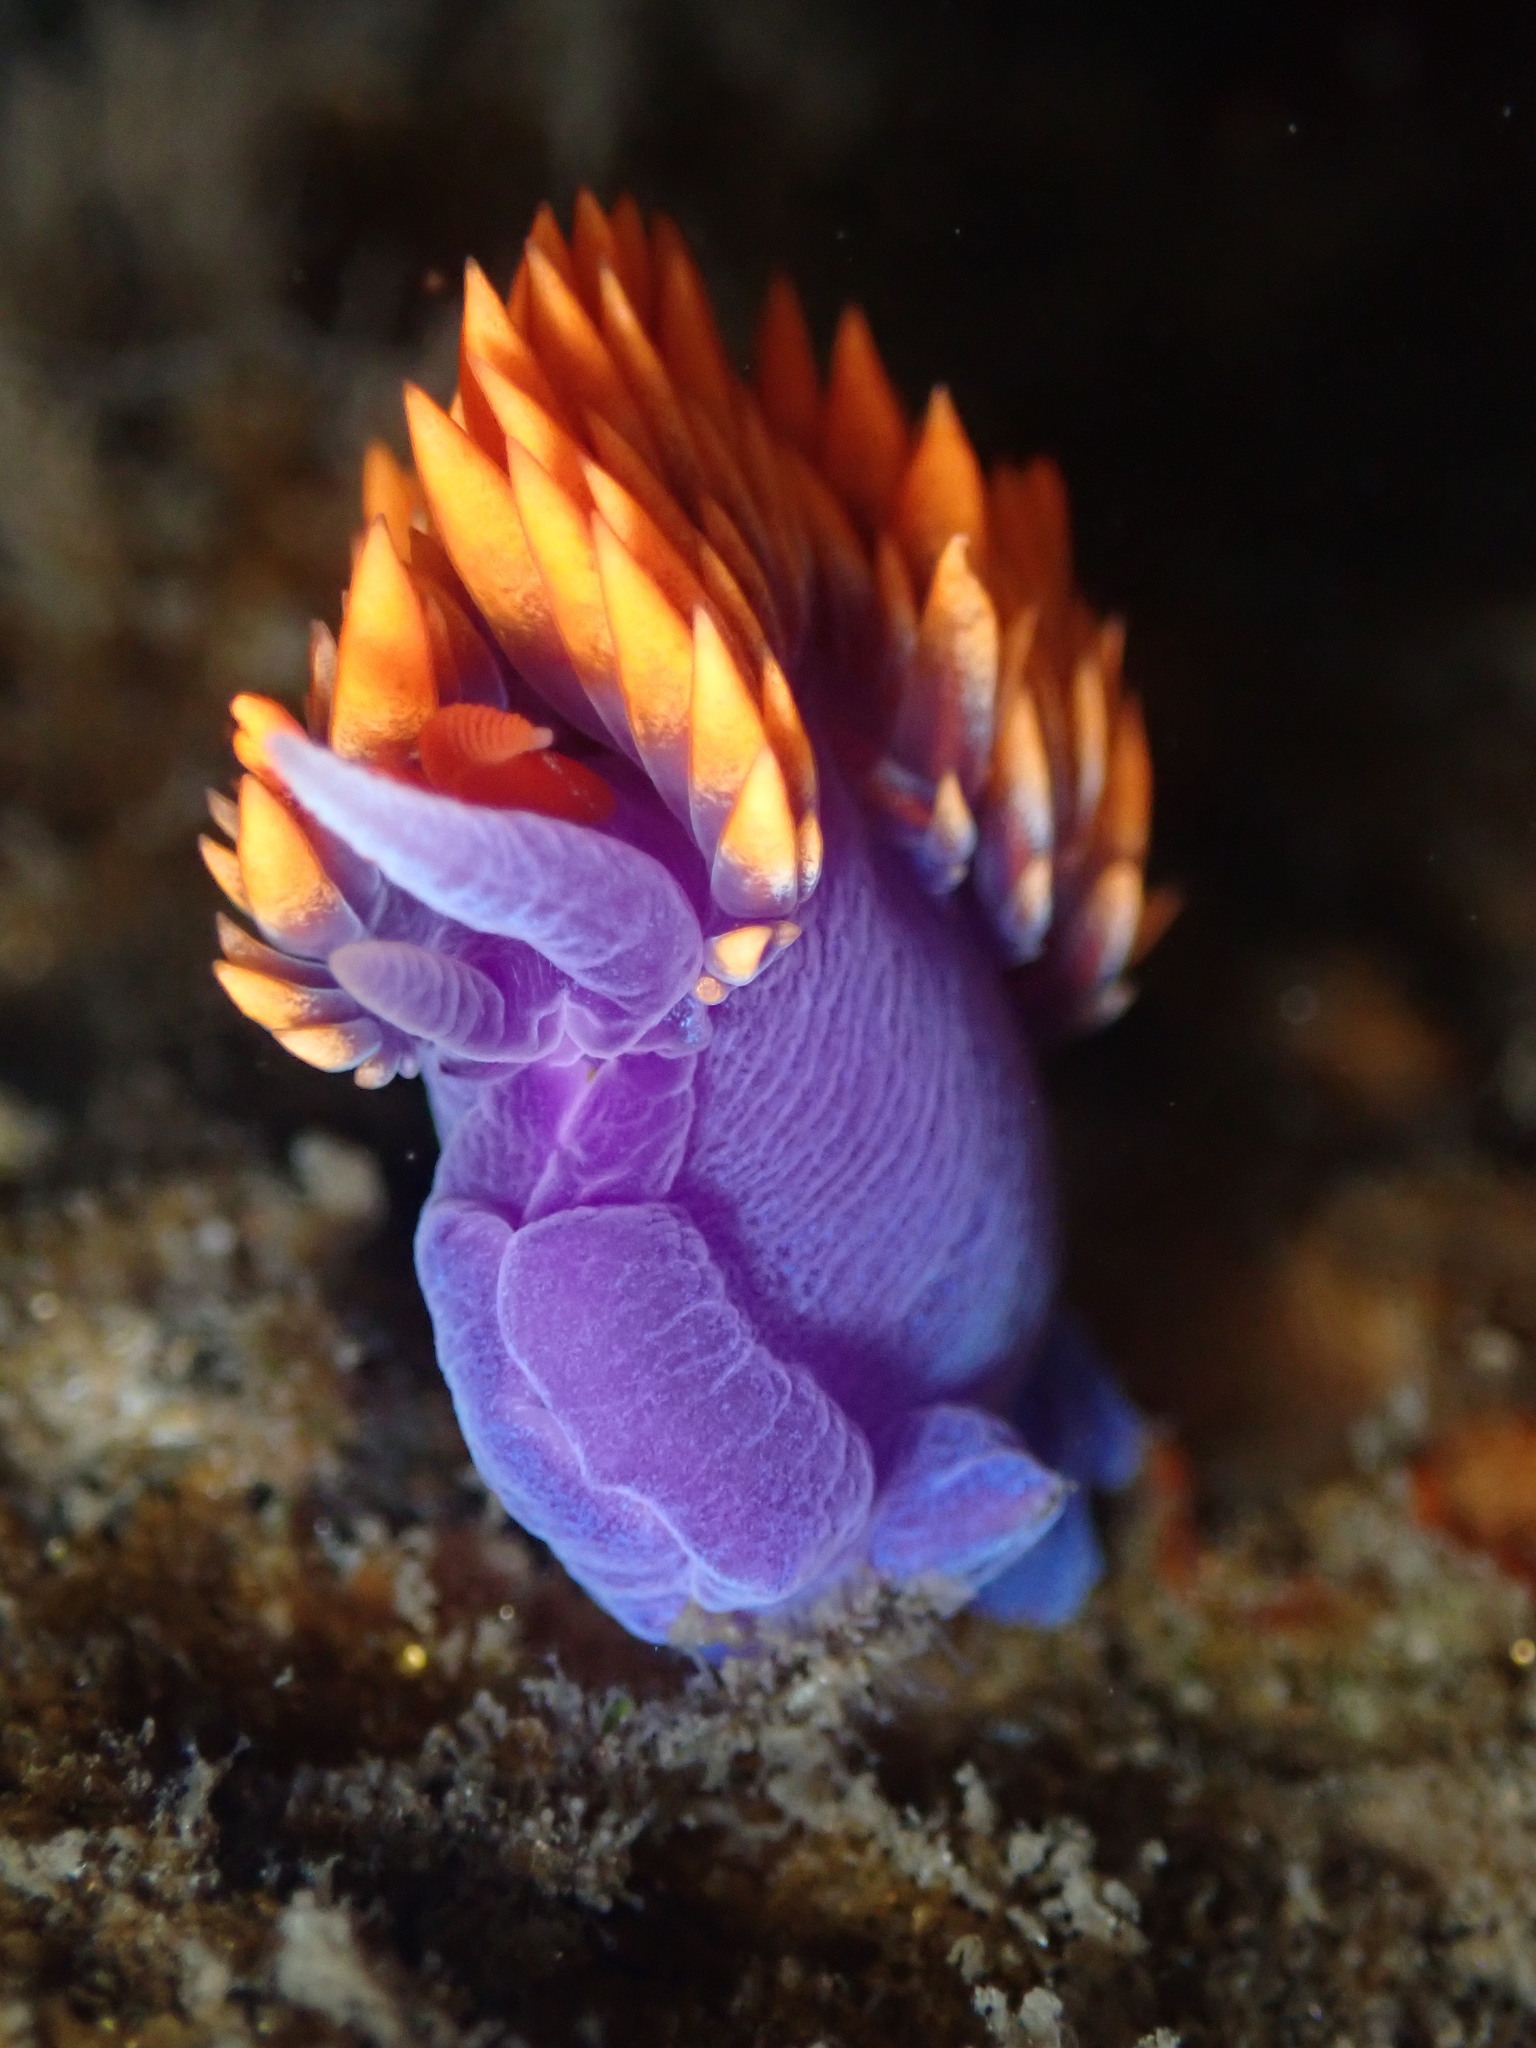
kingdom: Animalia
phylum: Mollusca
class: Gastropoda
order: Nudibranchia
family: Flabellinopsidae
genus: Flabellinopsis
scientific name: Flabellinopsis iodinea
